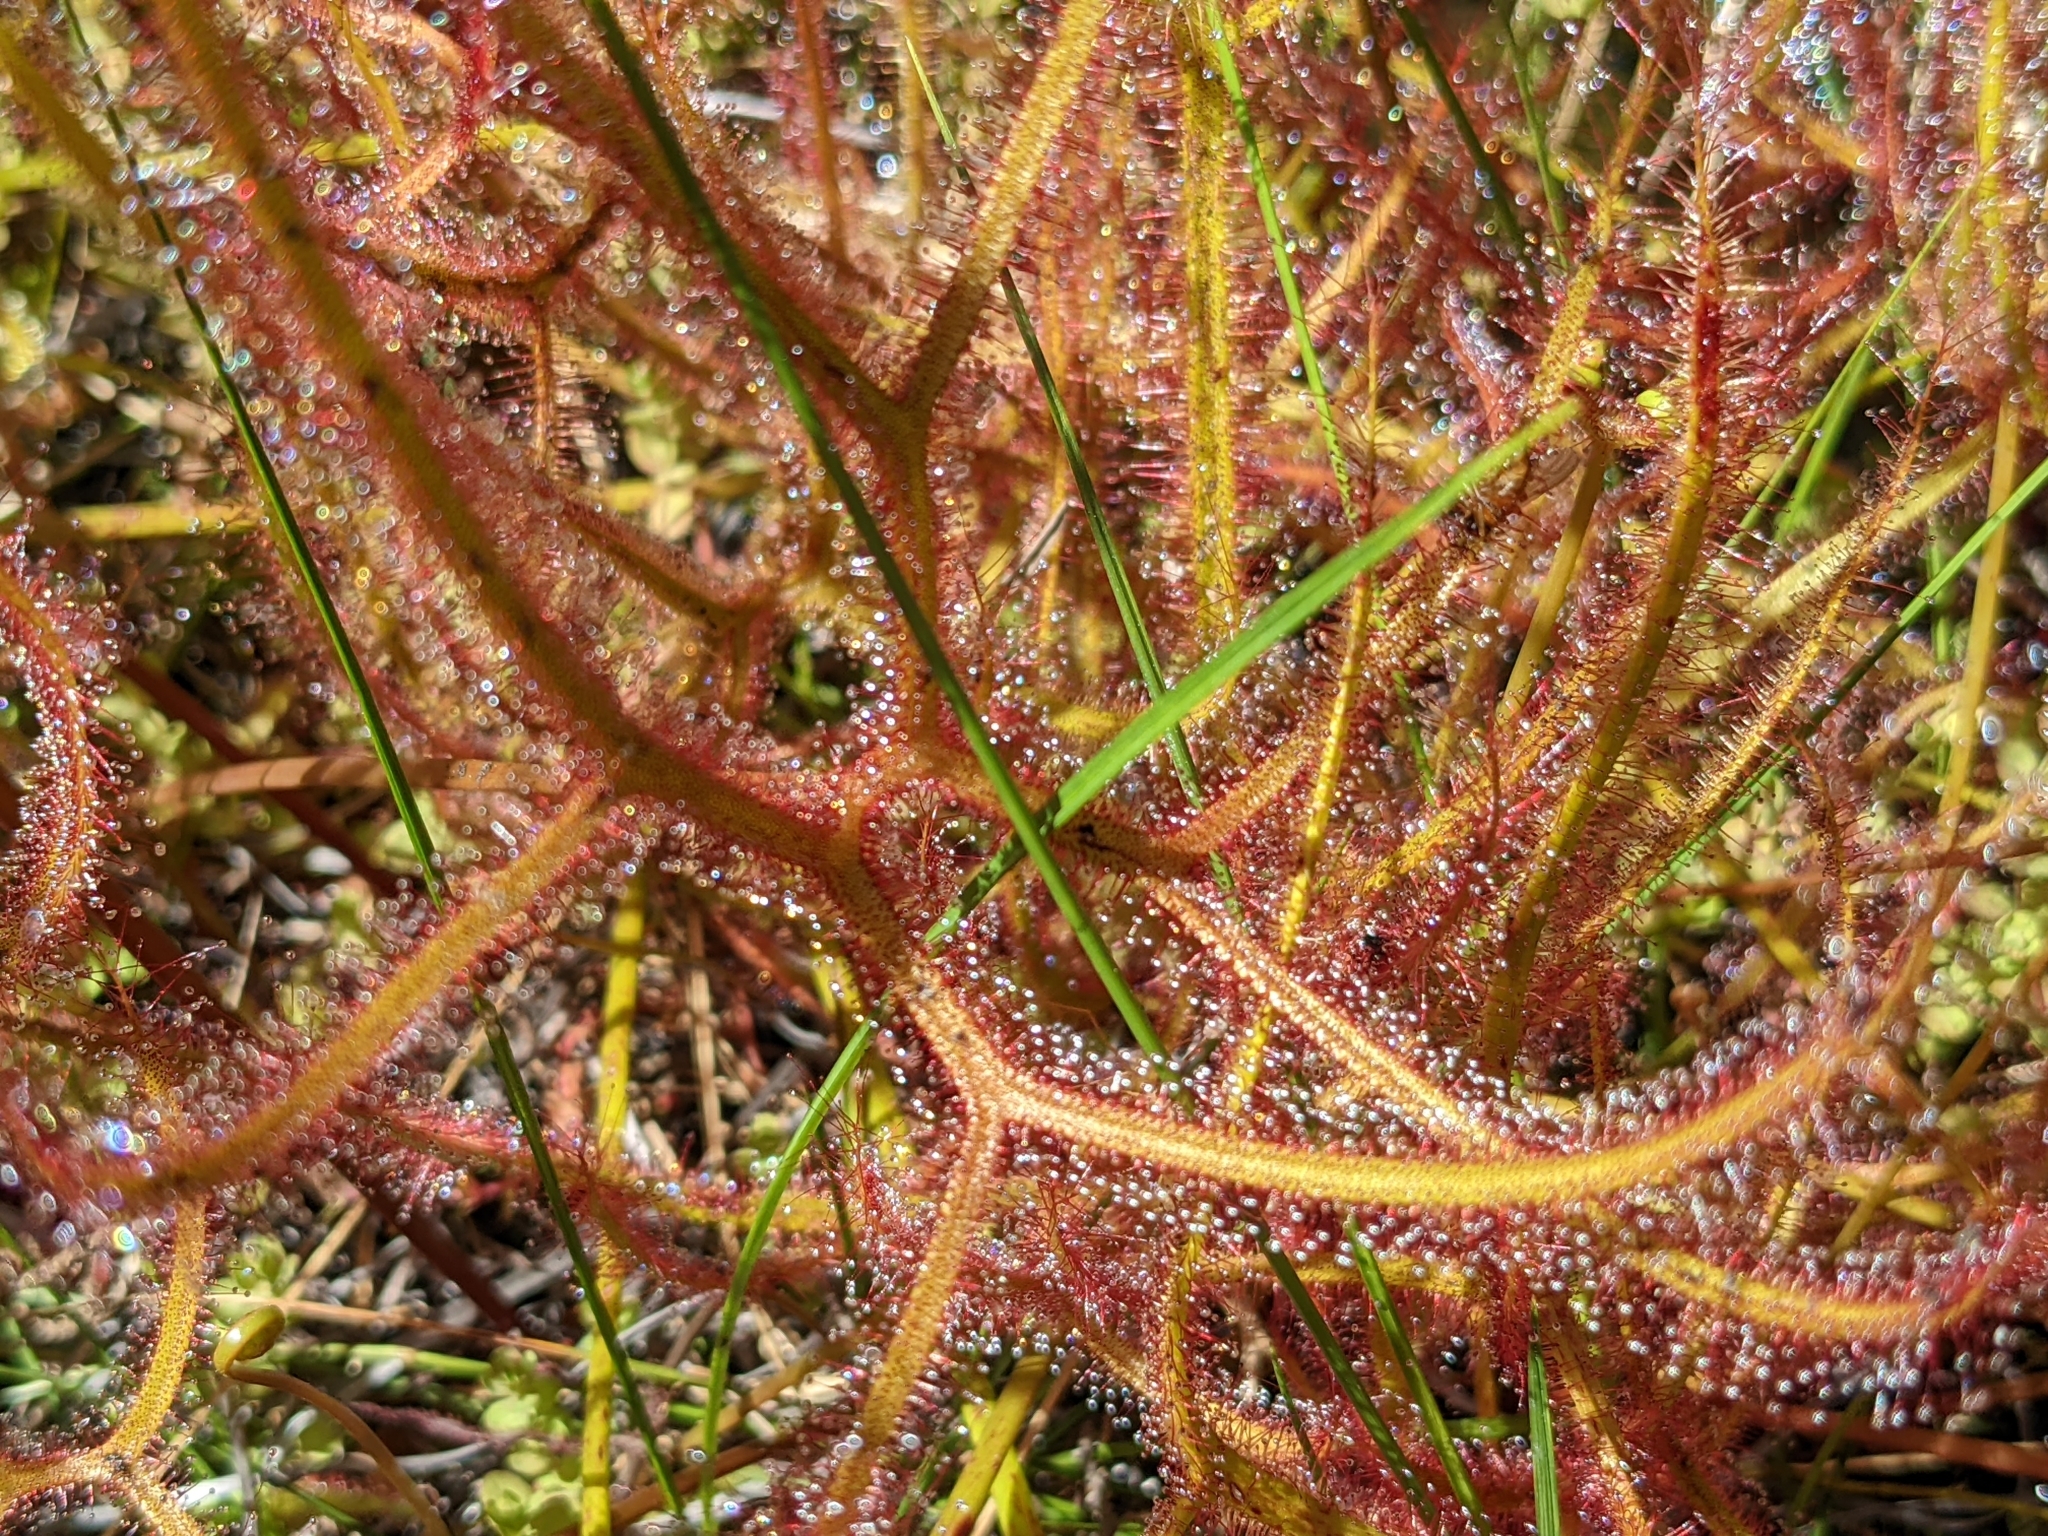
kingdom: Plantae
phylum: Tracheophyta
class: Magnoliopsida
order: Caryophyllales
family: Droseraceae
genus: Drosera
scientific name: Drosera binata
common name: Forked sundew
